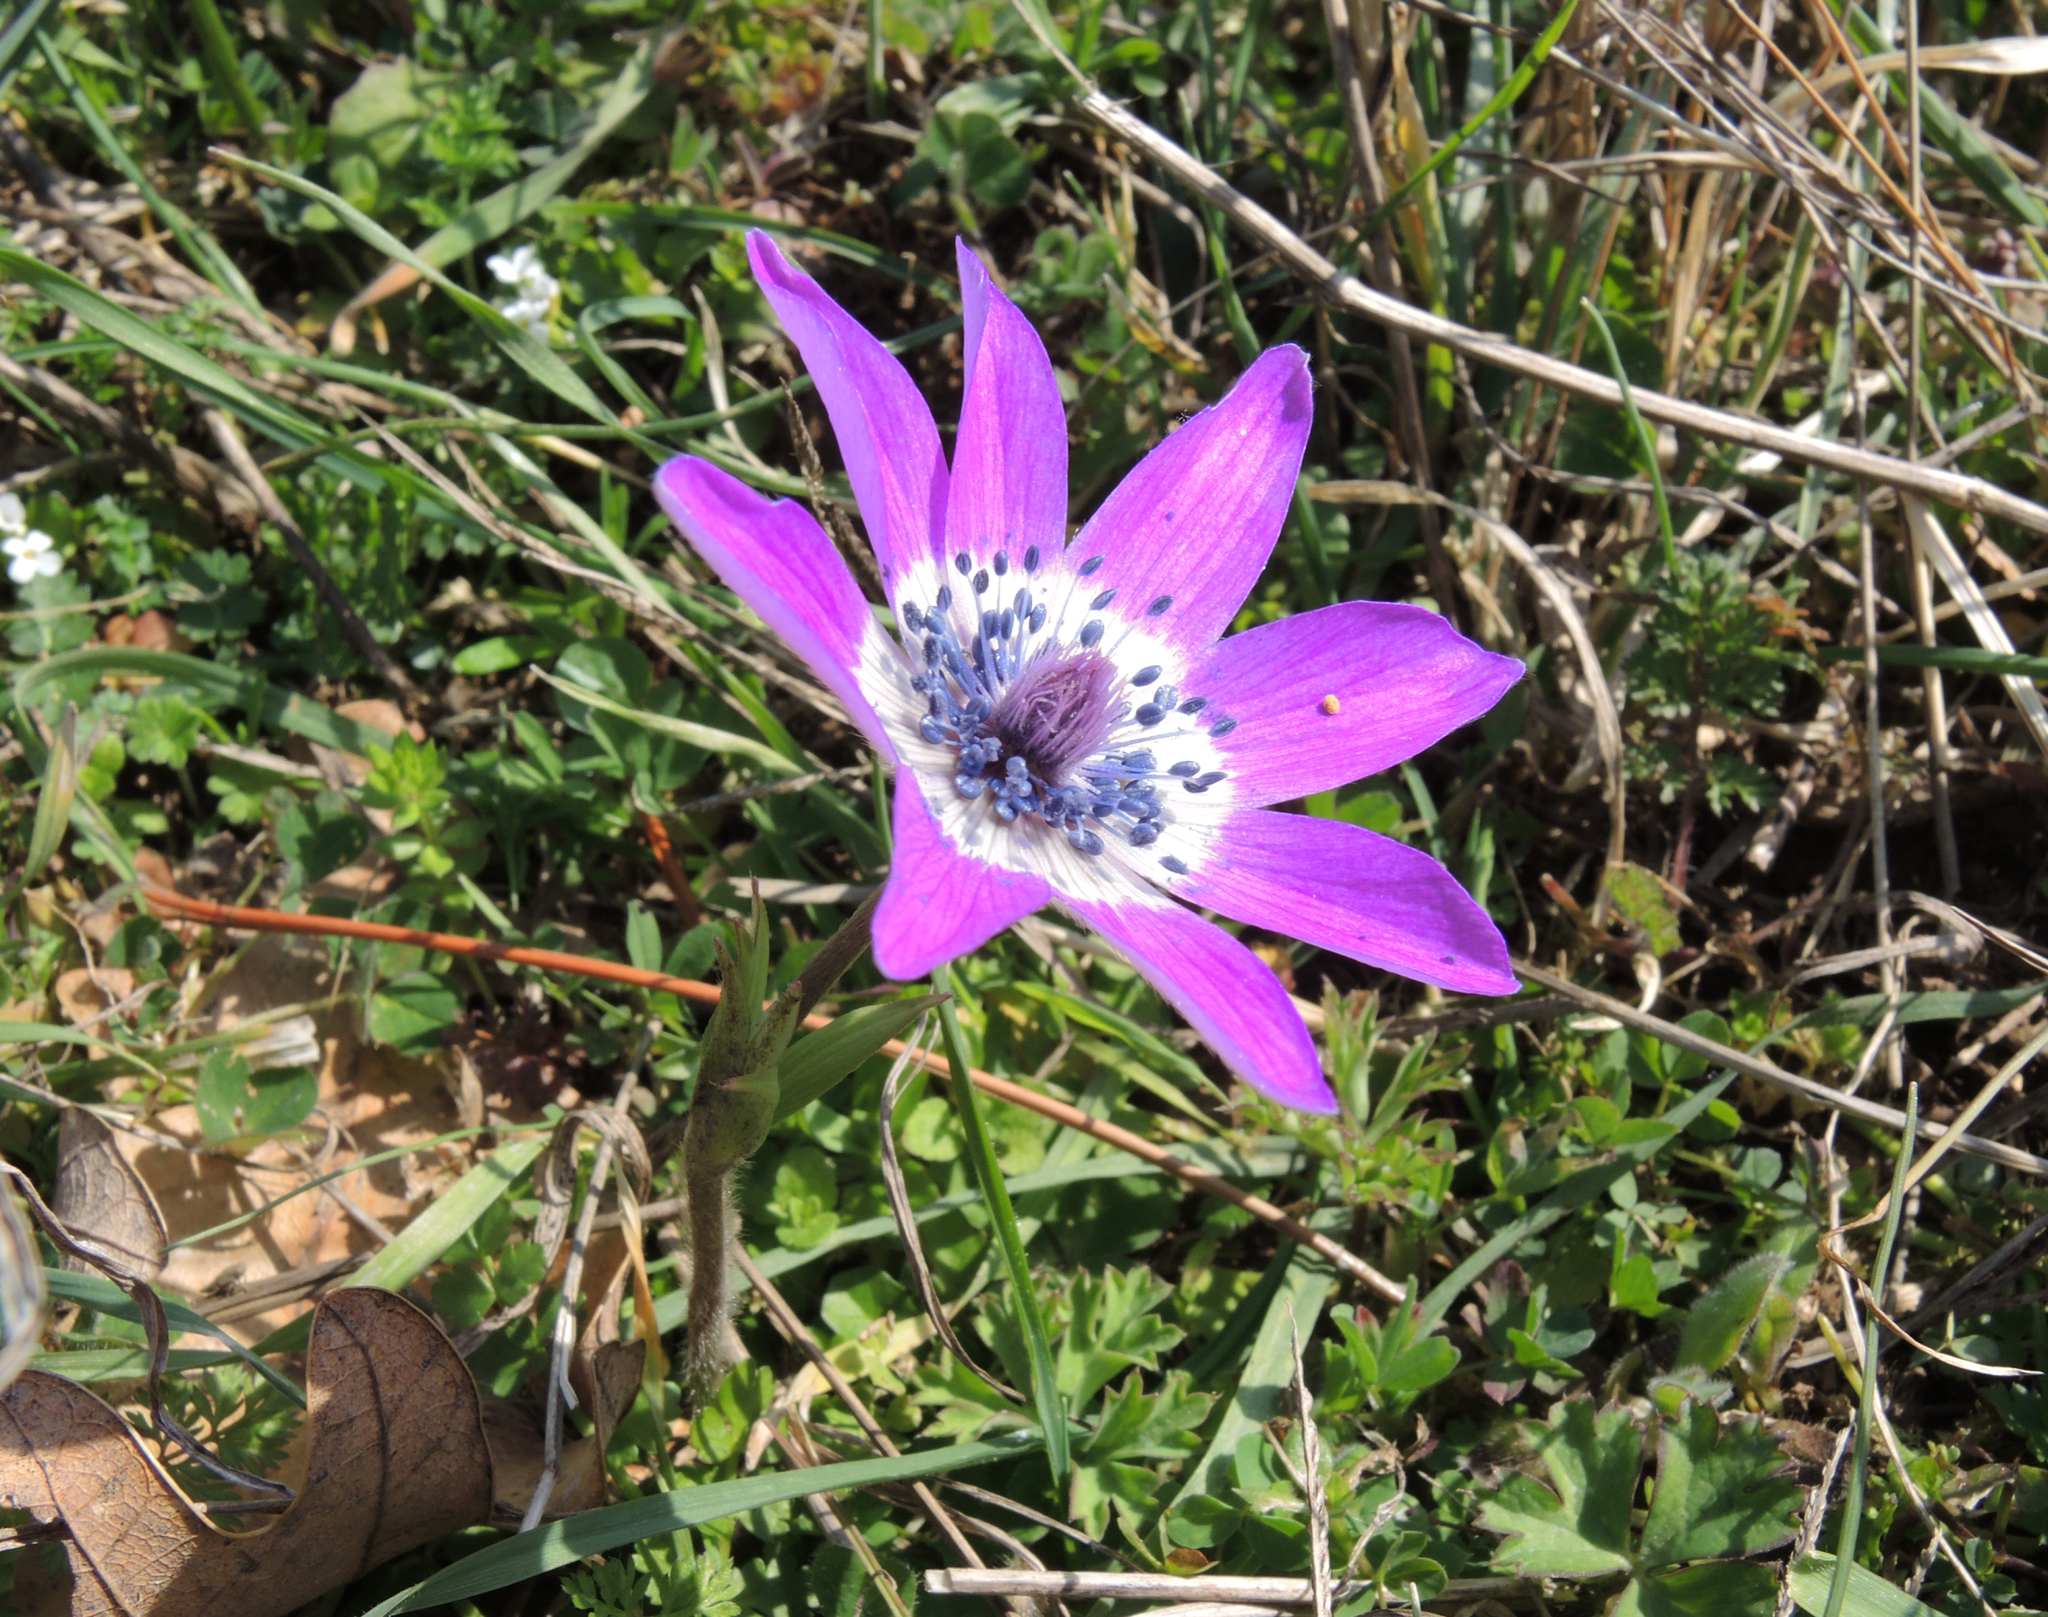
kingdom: Plantae
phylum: Tracheophyta
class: Magnoliopsida
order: Ranunculales
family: Ranunculaceae
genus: Anemone
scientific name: Anemone pavonina
